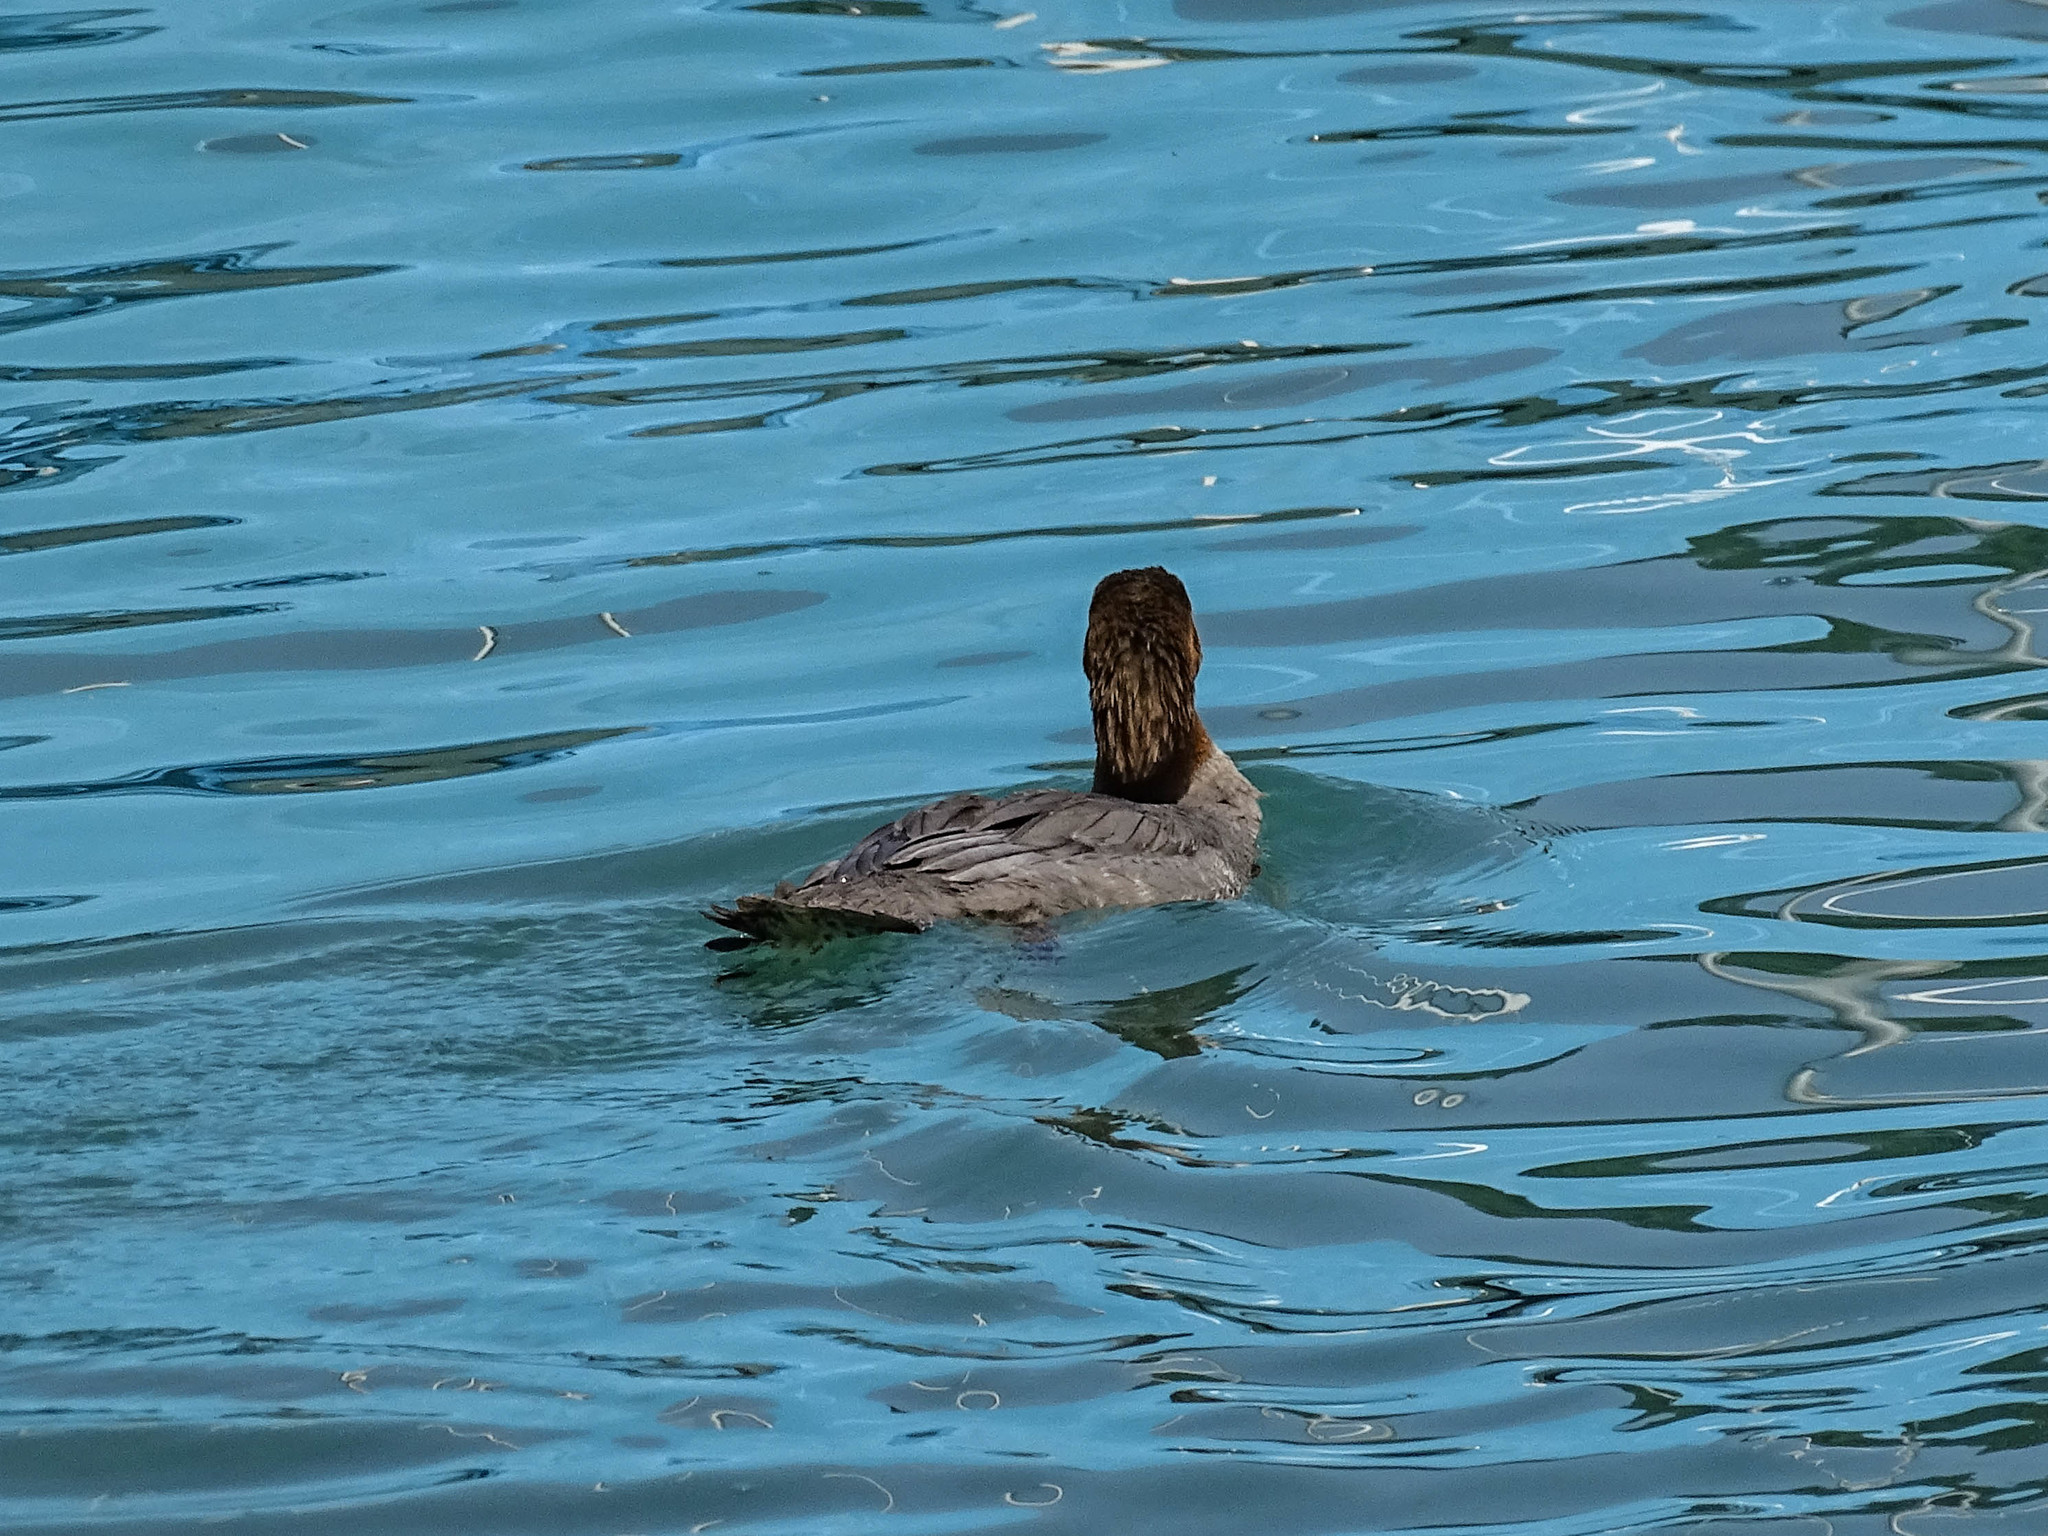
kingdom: Animalia
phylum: Chordata
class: Aves
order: Anseriformes
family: Anatidae
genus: Mergus
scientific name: Mergus merganser
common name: Common merganser
